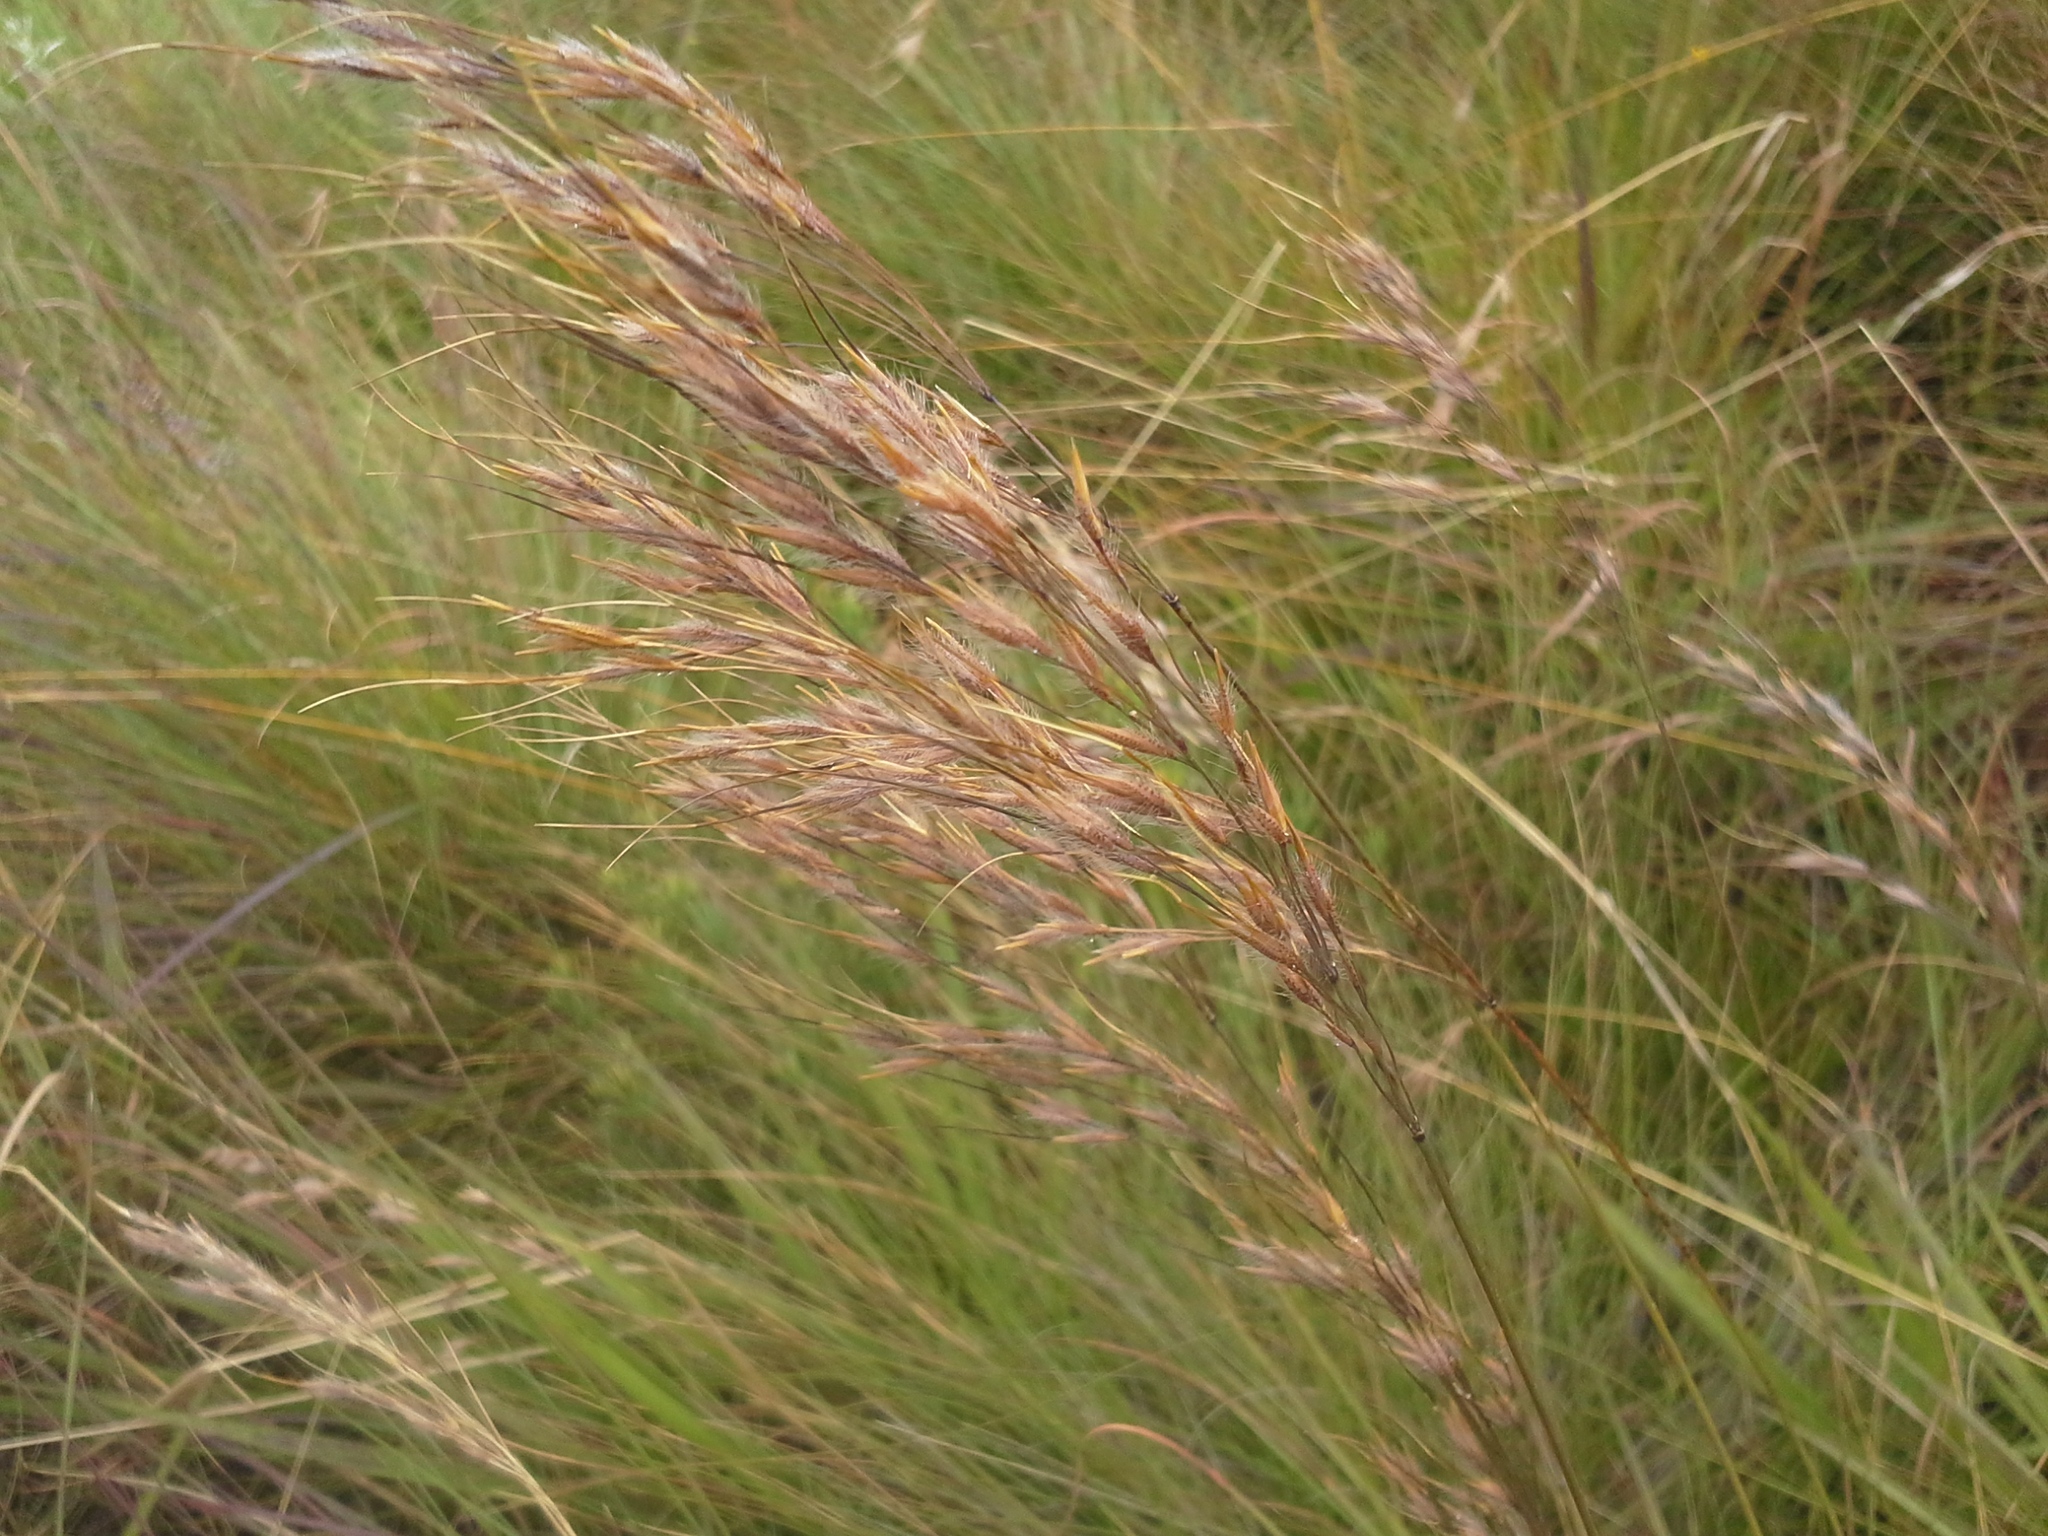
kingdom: Plantae
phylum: Tracheophyta
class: Liliopsida
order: Poales
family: Poaceae
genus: Loudetia
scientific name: Loudetia simplex
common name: Common russet grass
